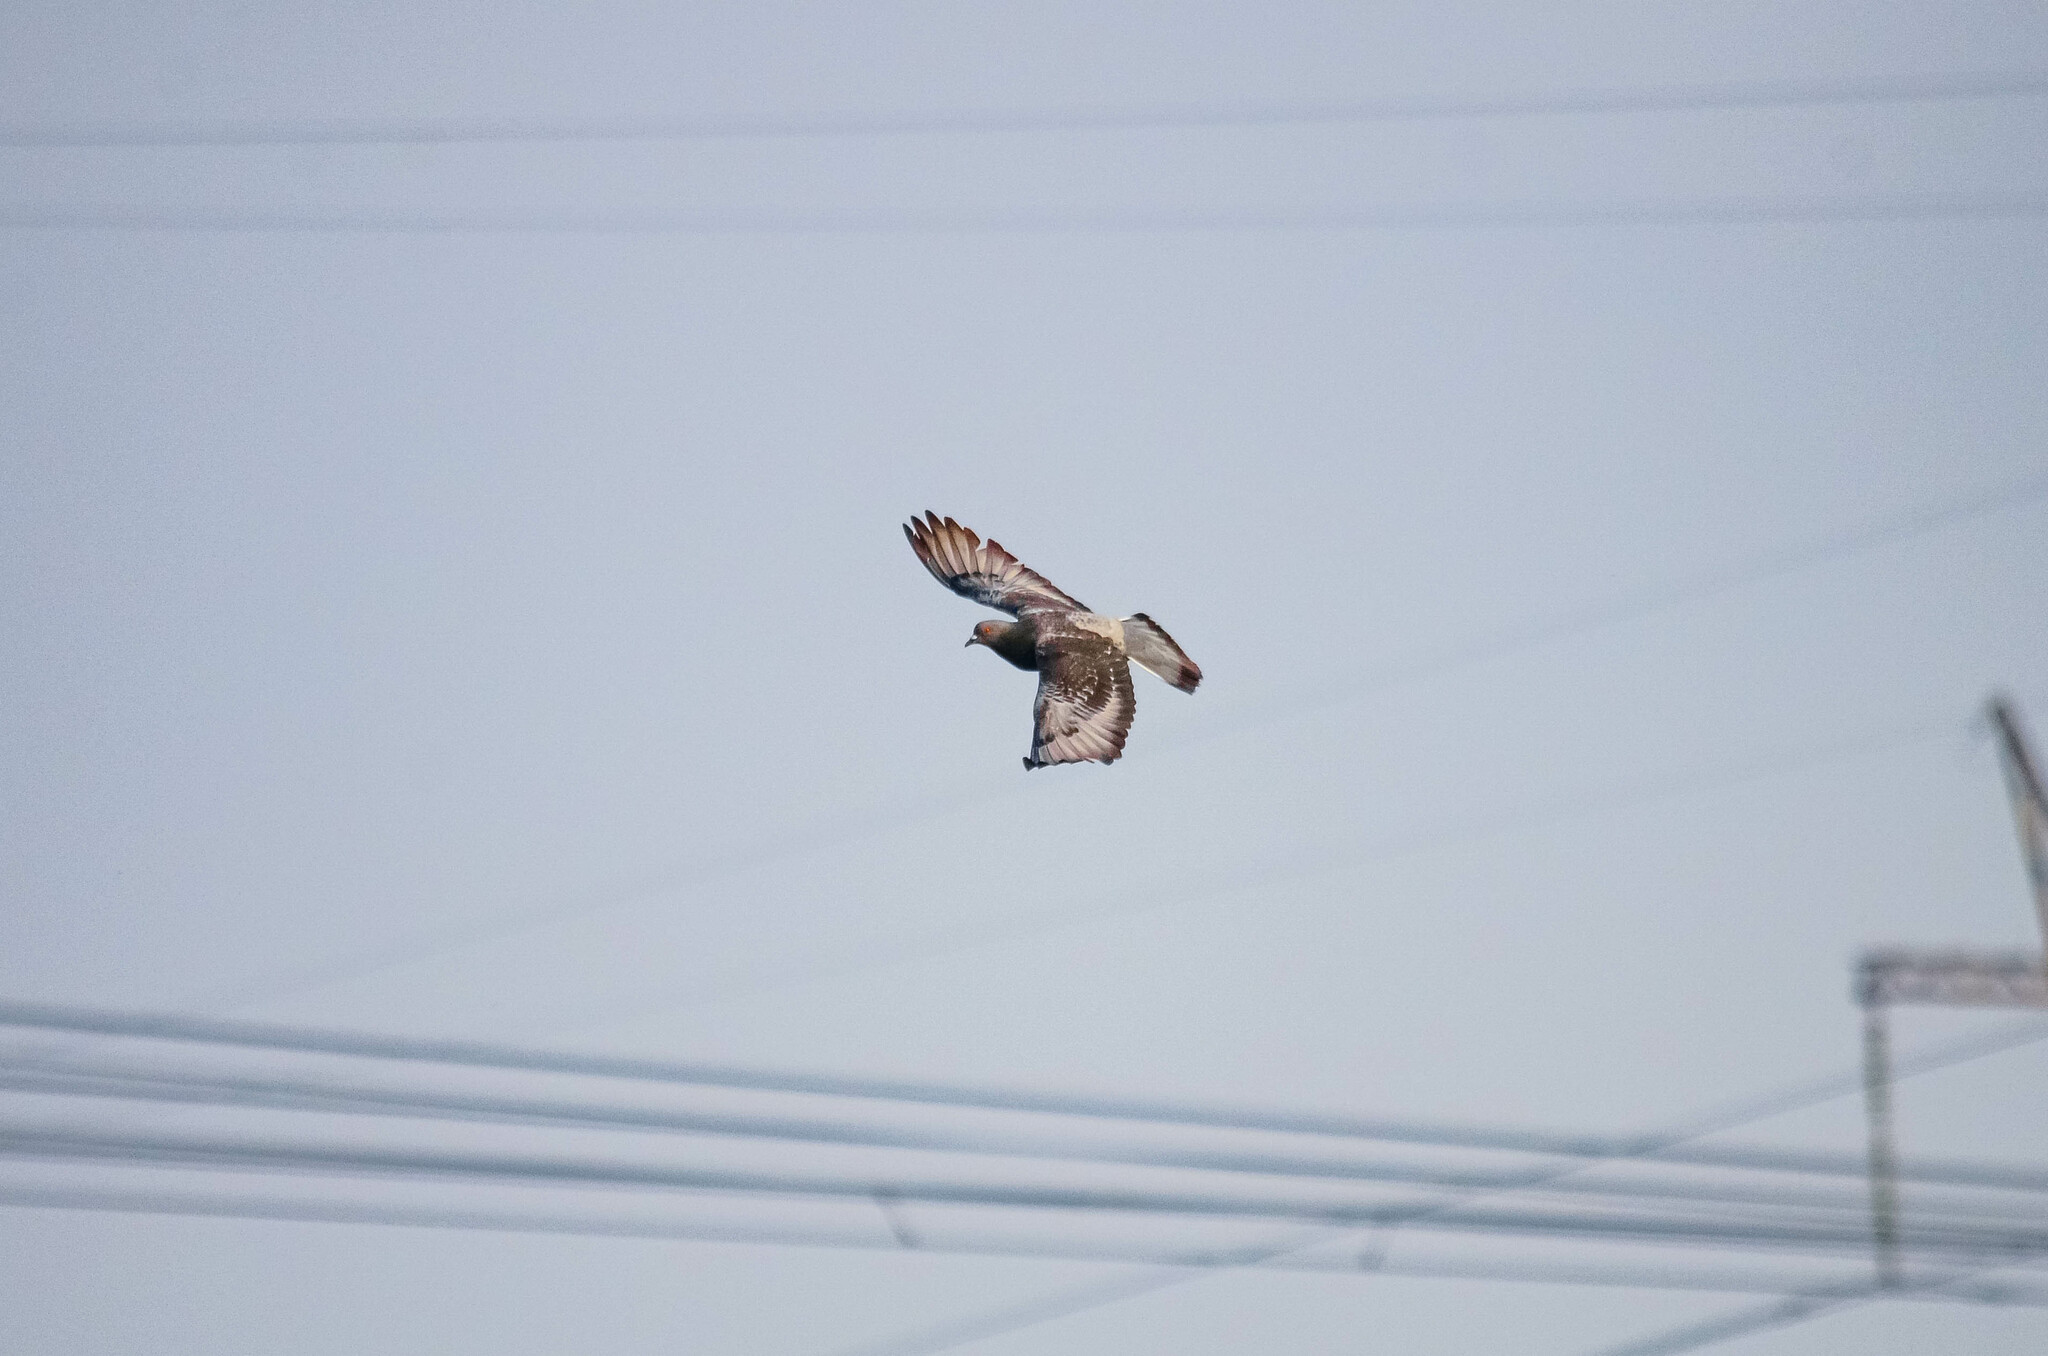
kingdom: Animalia
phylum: Chordata
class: Aves
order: Columbiformes
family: Columbidae
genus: Columba
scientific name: Columba livia
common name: Rock pigeon
